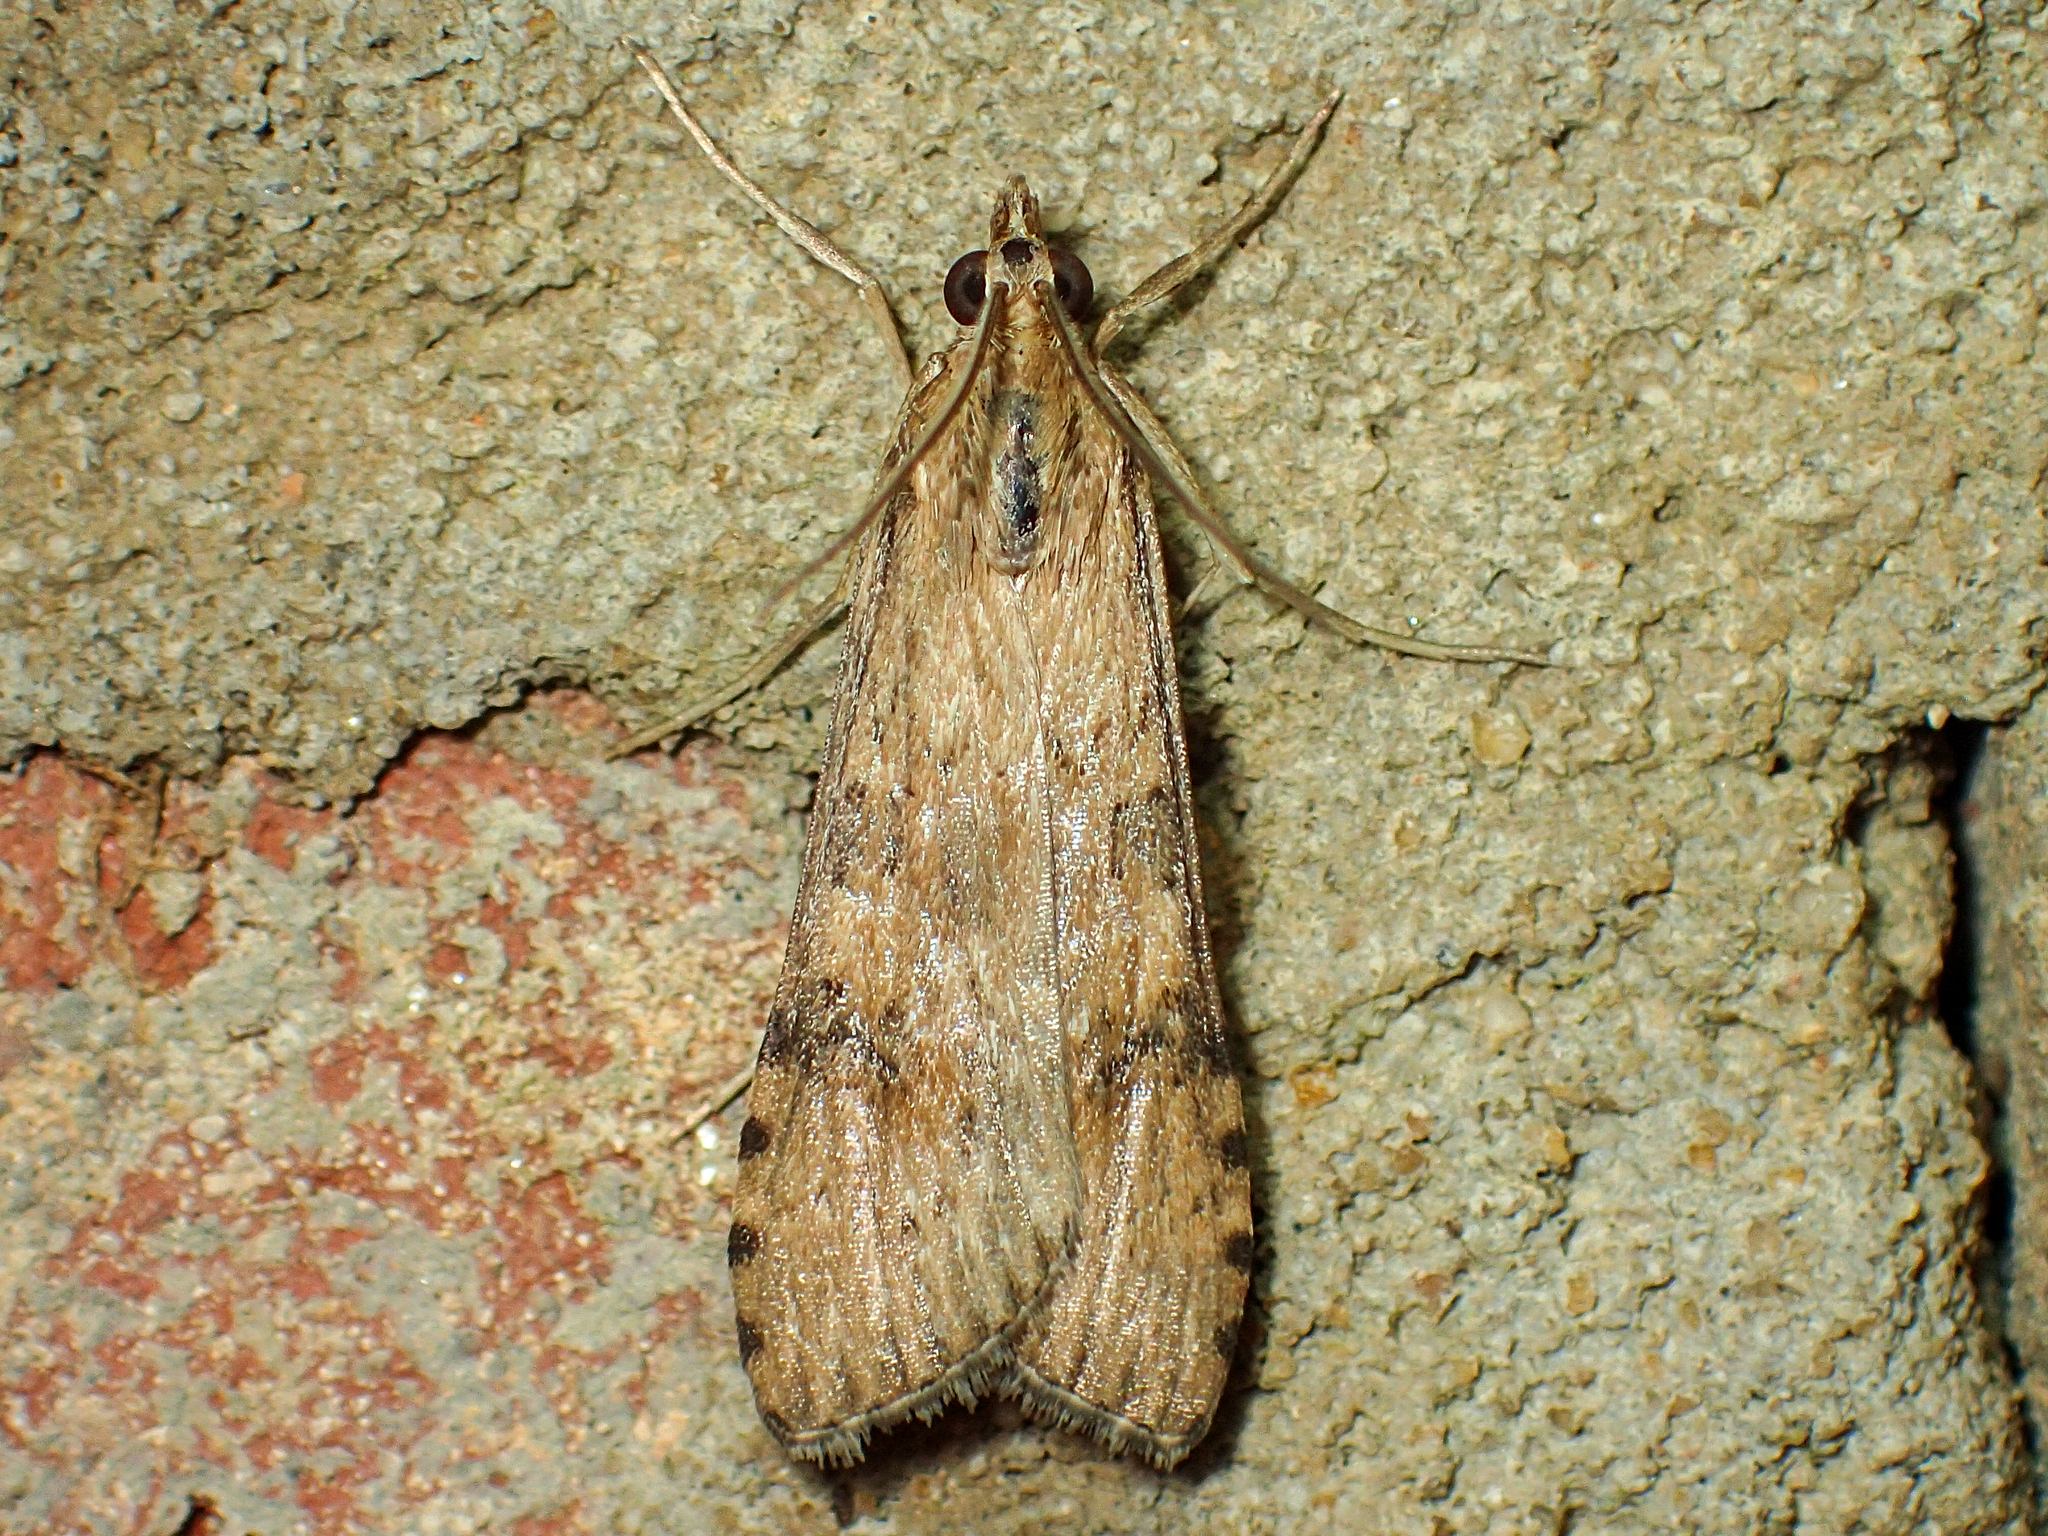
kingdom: Animalia
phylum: Arthropoda
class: Insecta
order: Lepidoptera
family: Crambidae
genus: Nomophila
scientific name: Nomophila nearctica
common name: American rush veneer
